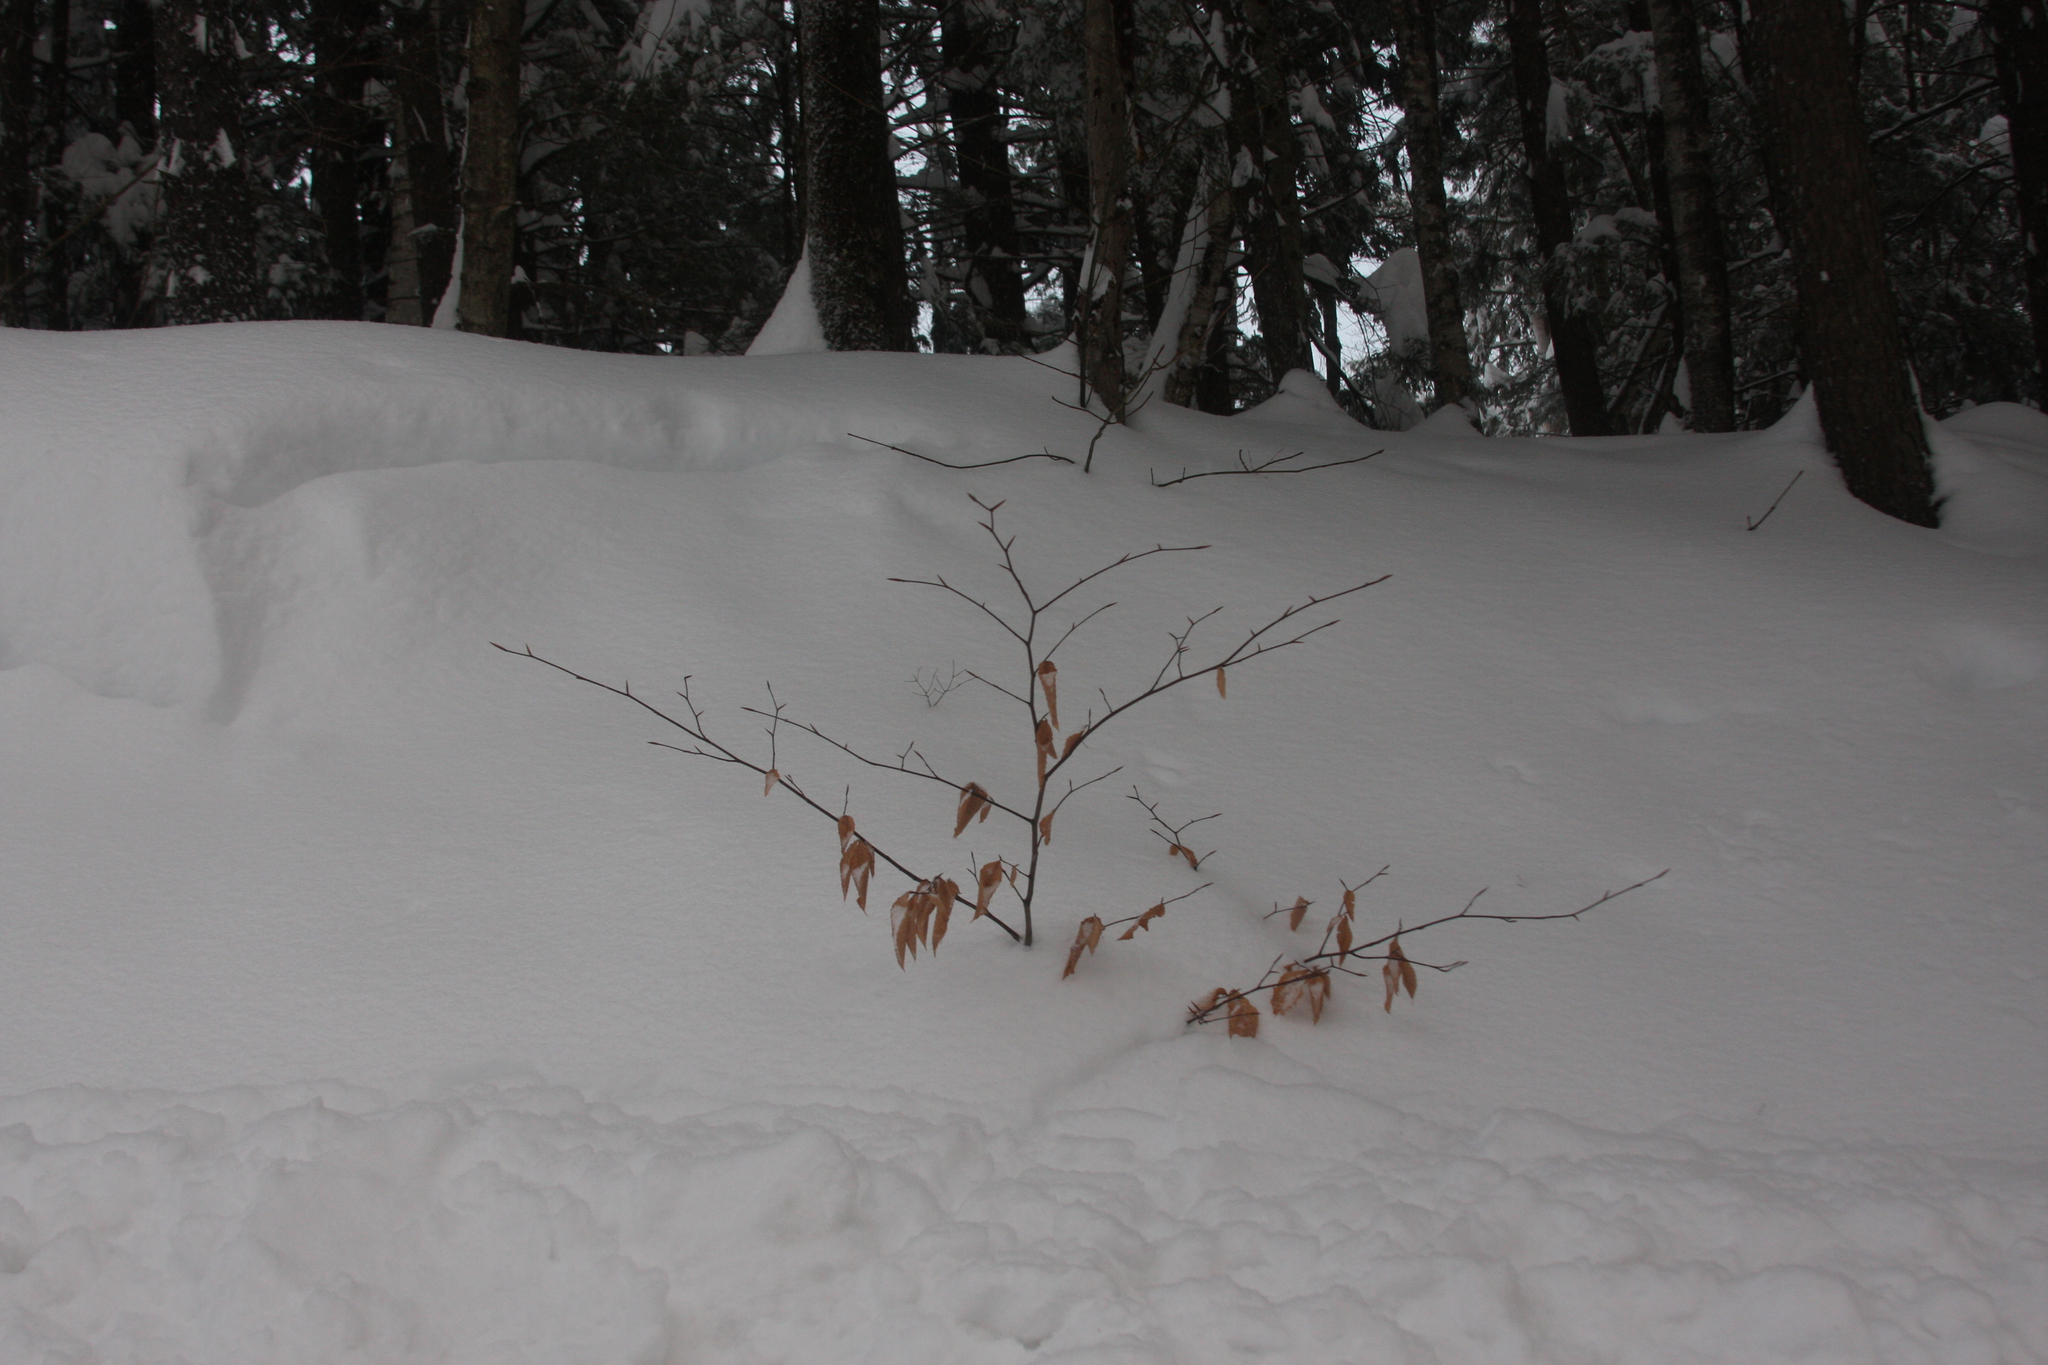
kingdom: Plantae
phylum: Tracheophyta
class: Magnoliopsida
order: Fagales
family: Fagaceae
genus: Fagus
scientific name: Fagus grandifolia
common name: American beech
